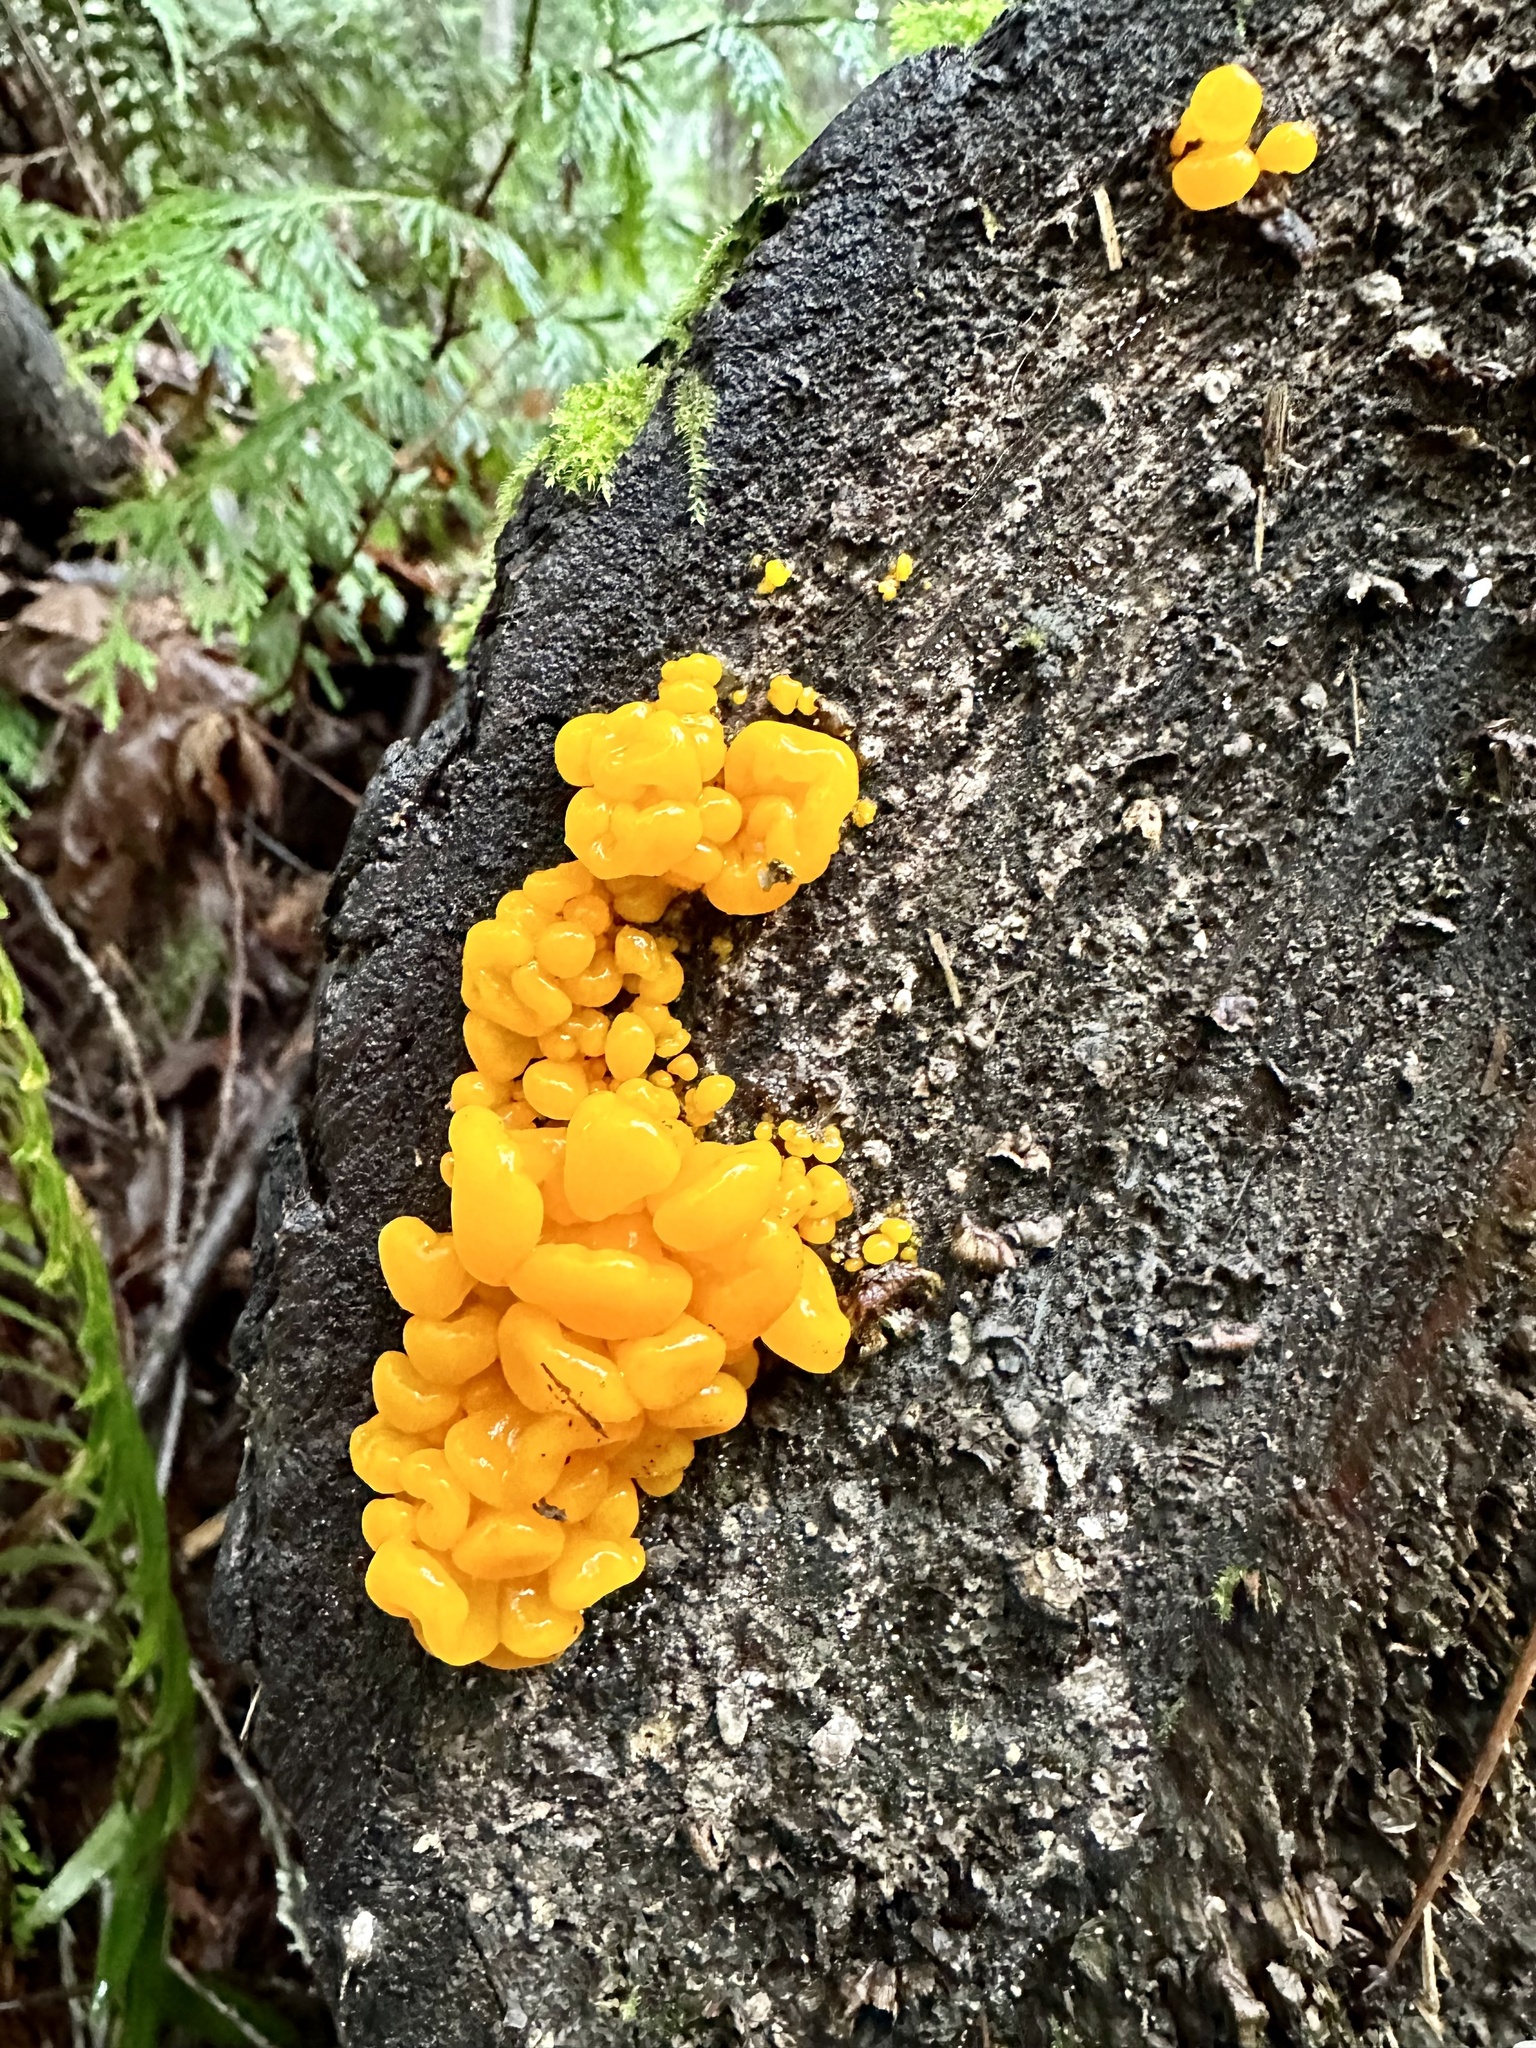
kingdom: Fungi
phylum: Basidiomycota
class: Dacrymycetes
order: Dacrymycetales
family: Dacrymycetaceae
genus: Dacrymyces
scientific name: Dacrymyces chrysospermus
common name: Orange jelly spot
